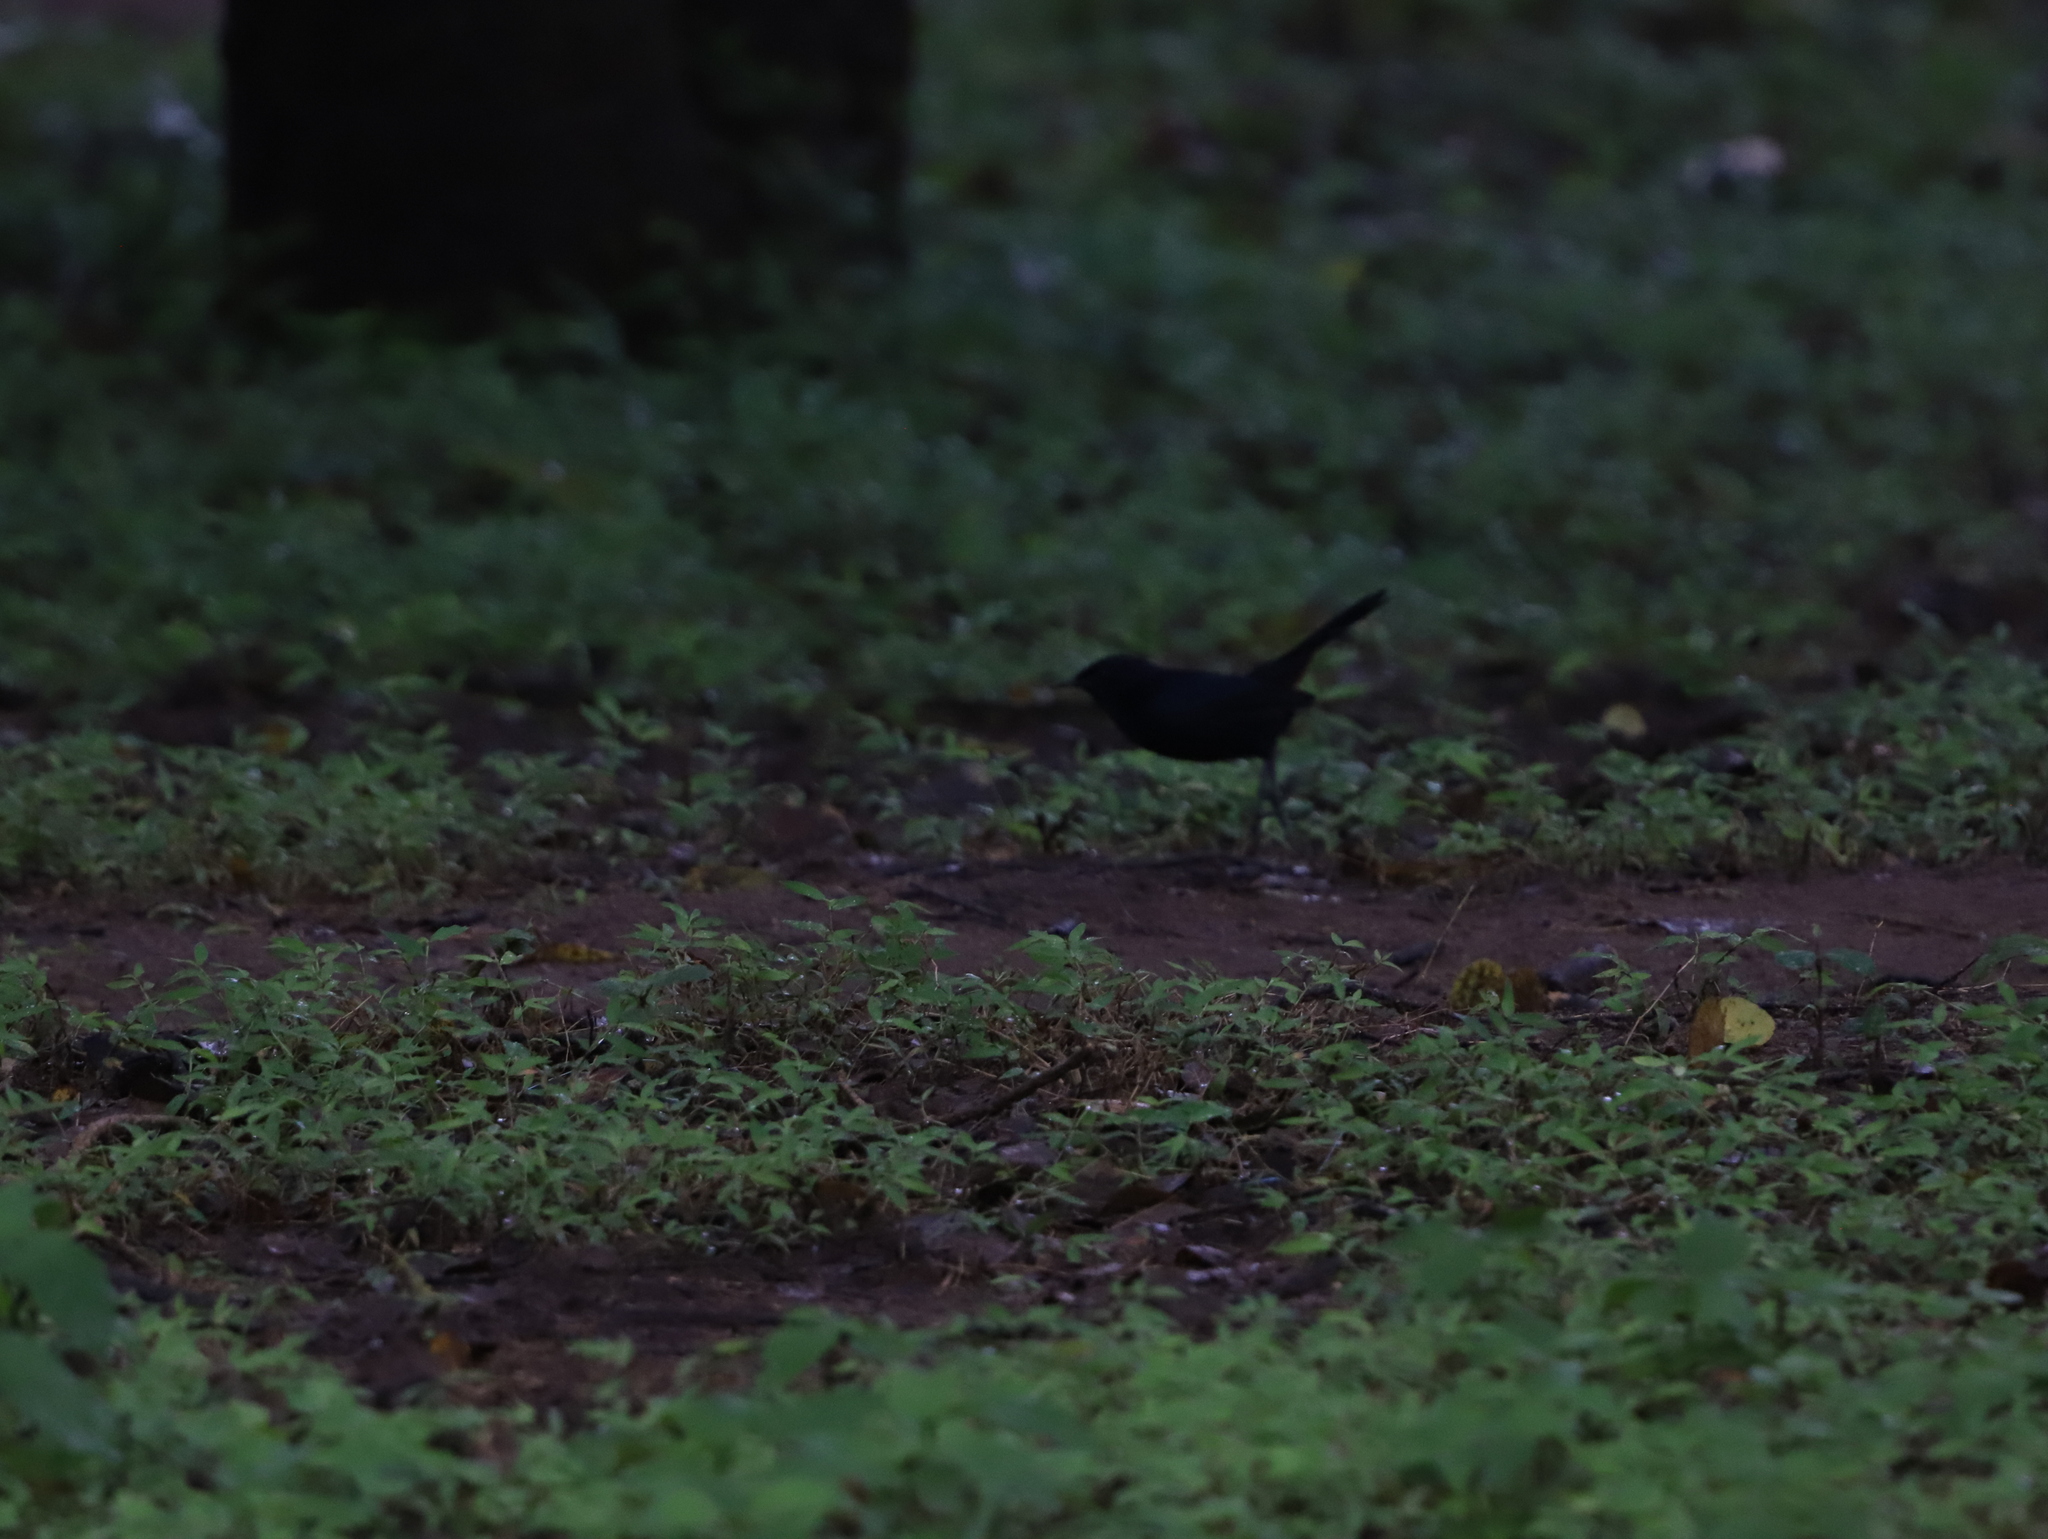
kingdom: Animalia
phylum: Chordata
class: Aves
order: Passeriformes
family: Muscicapidae
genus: Saxicoloides
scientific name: Saxicoloides fulicatus
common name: Indian robin
